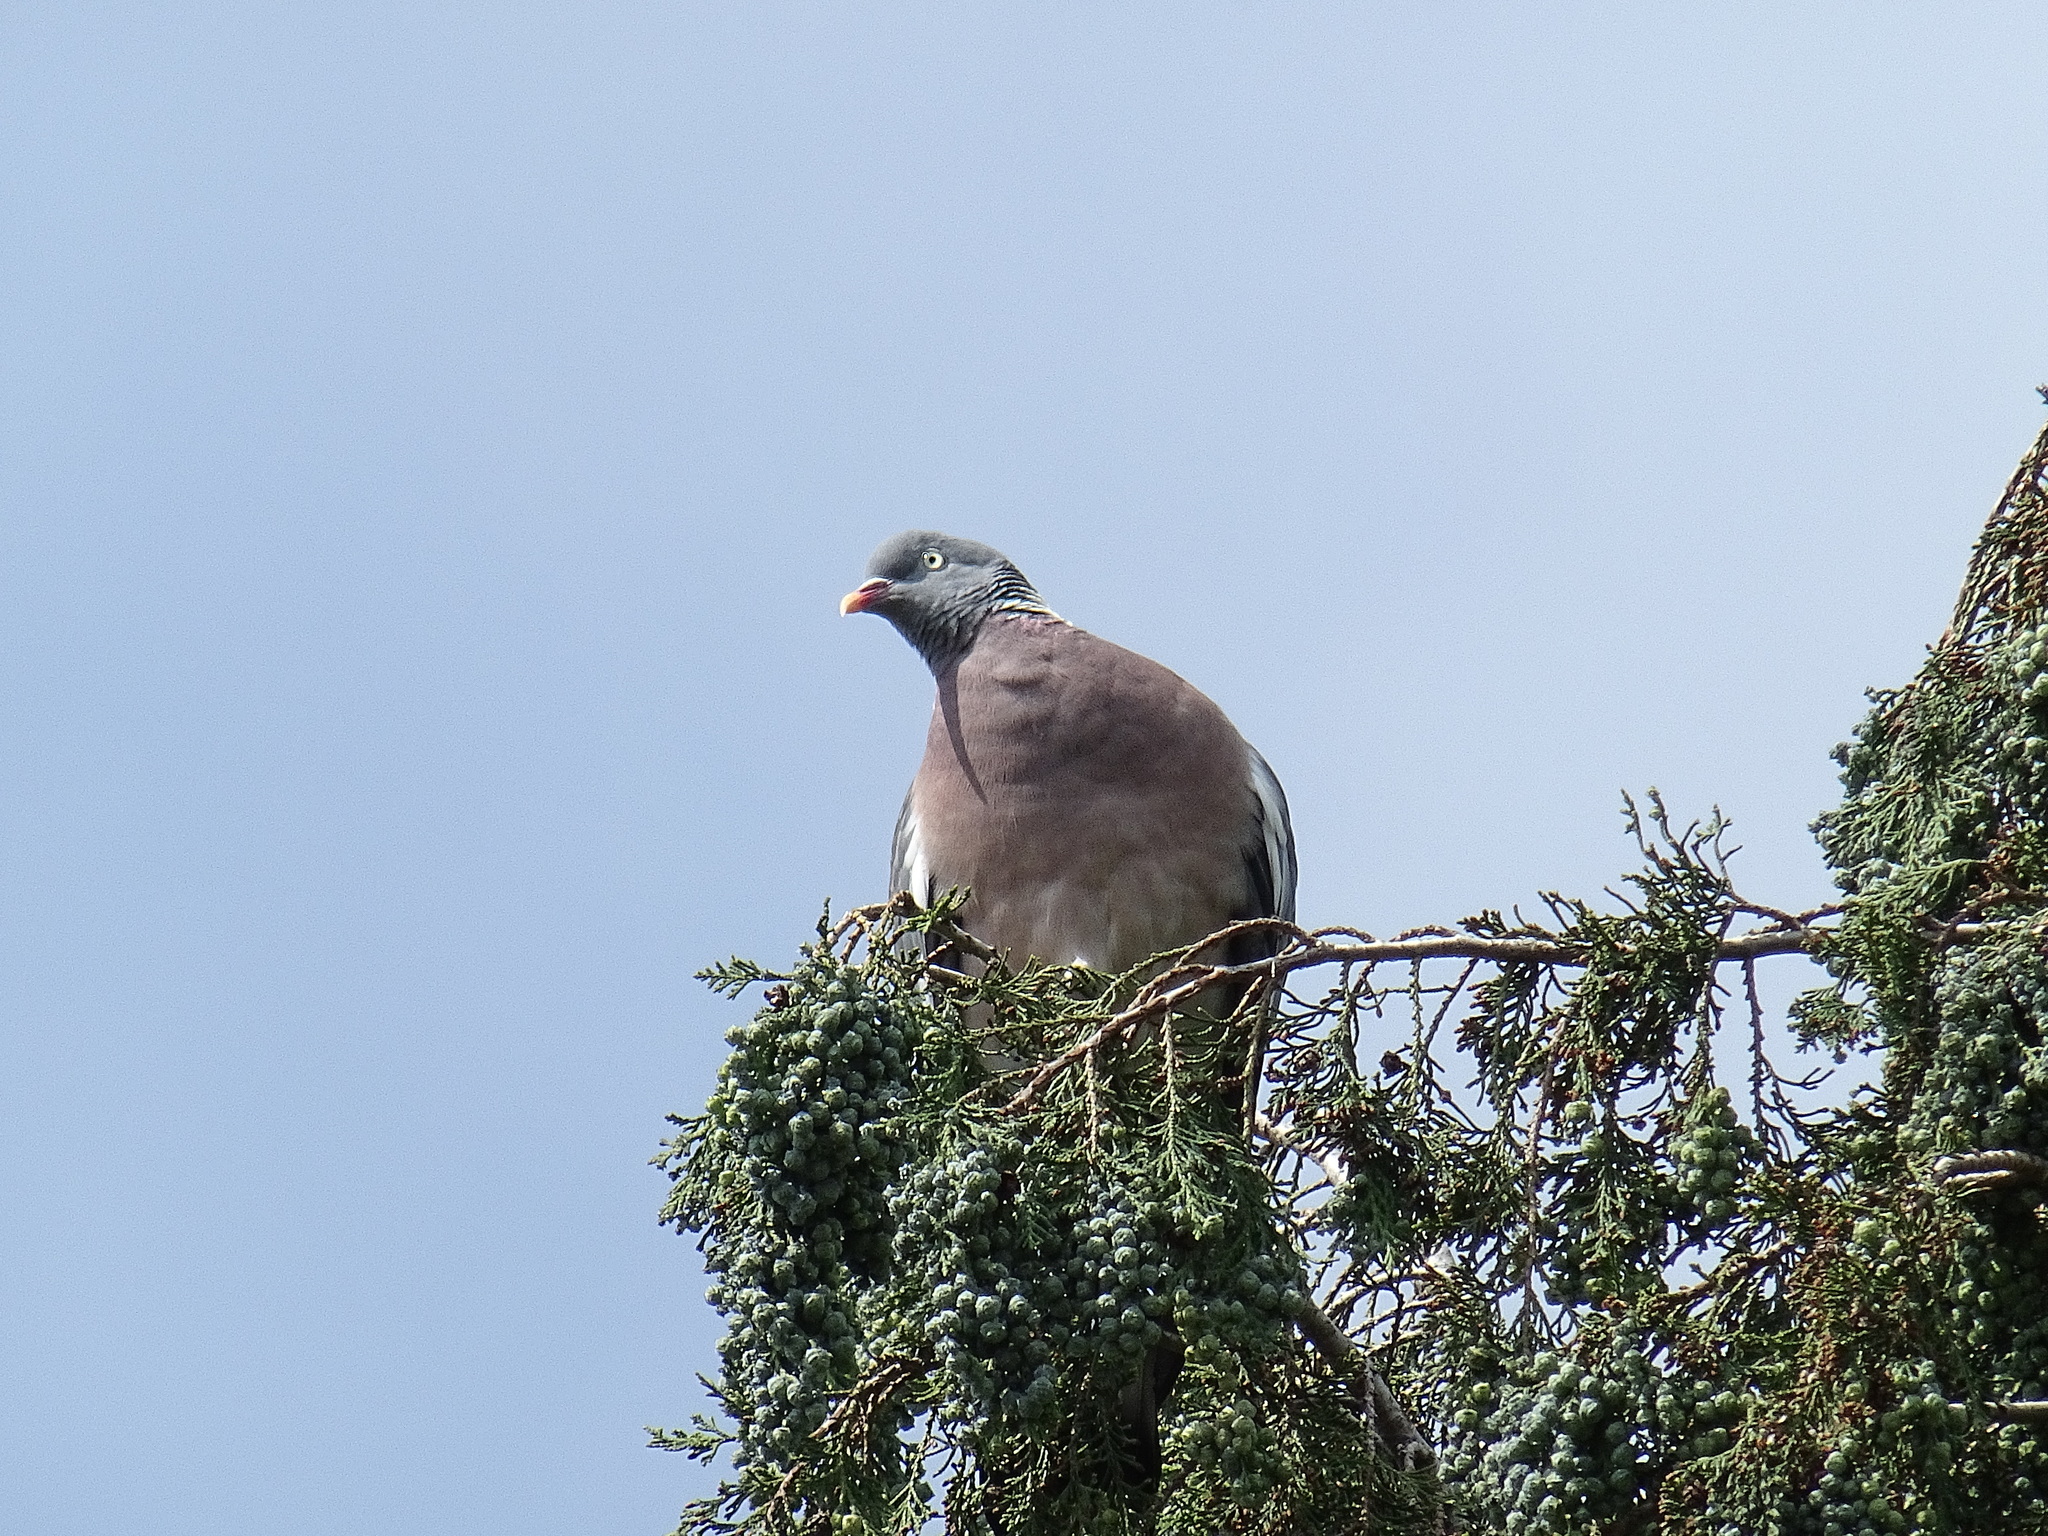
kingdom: Animalia
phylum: Chordata
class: Aves
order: Columbiformes
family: Columbidae
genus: Columba
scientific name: Columba palumbus
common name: Common wood pigeon
